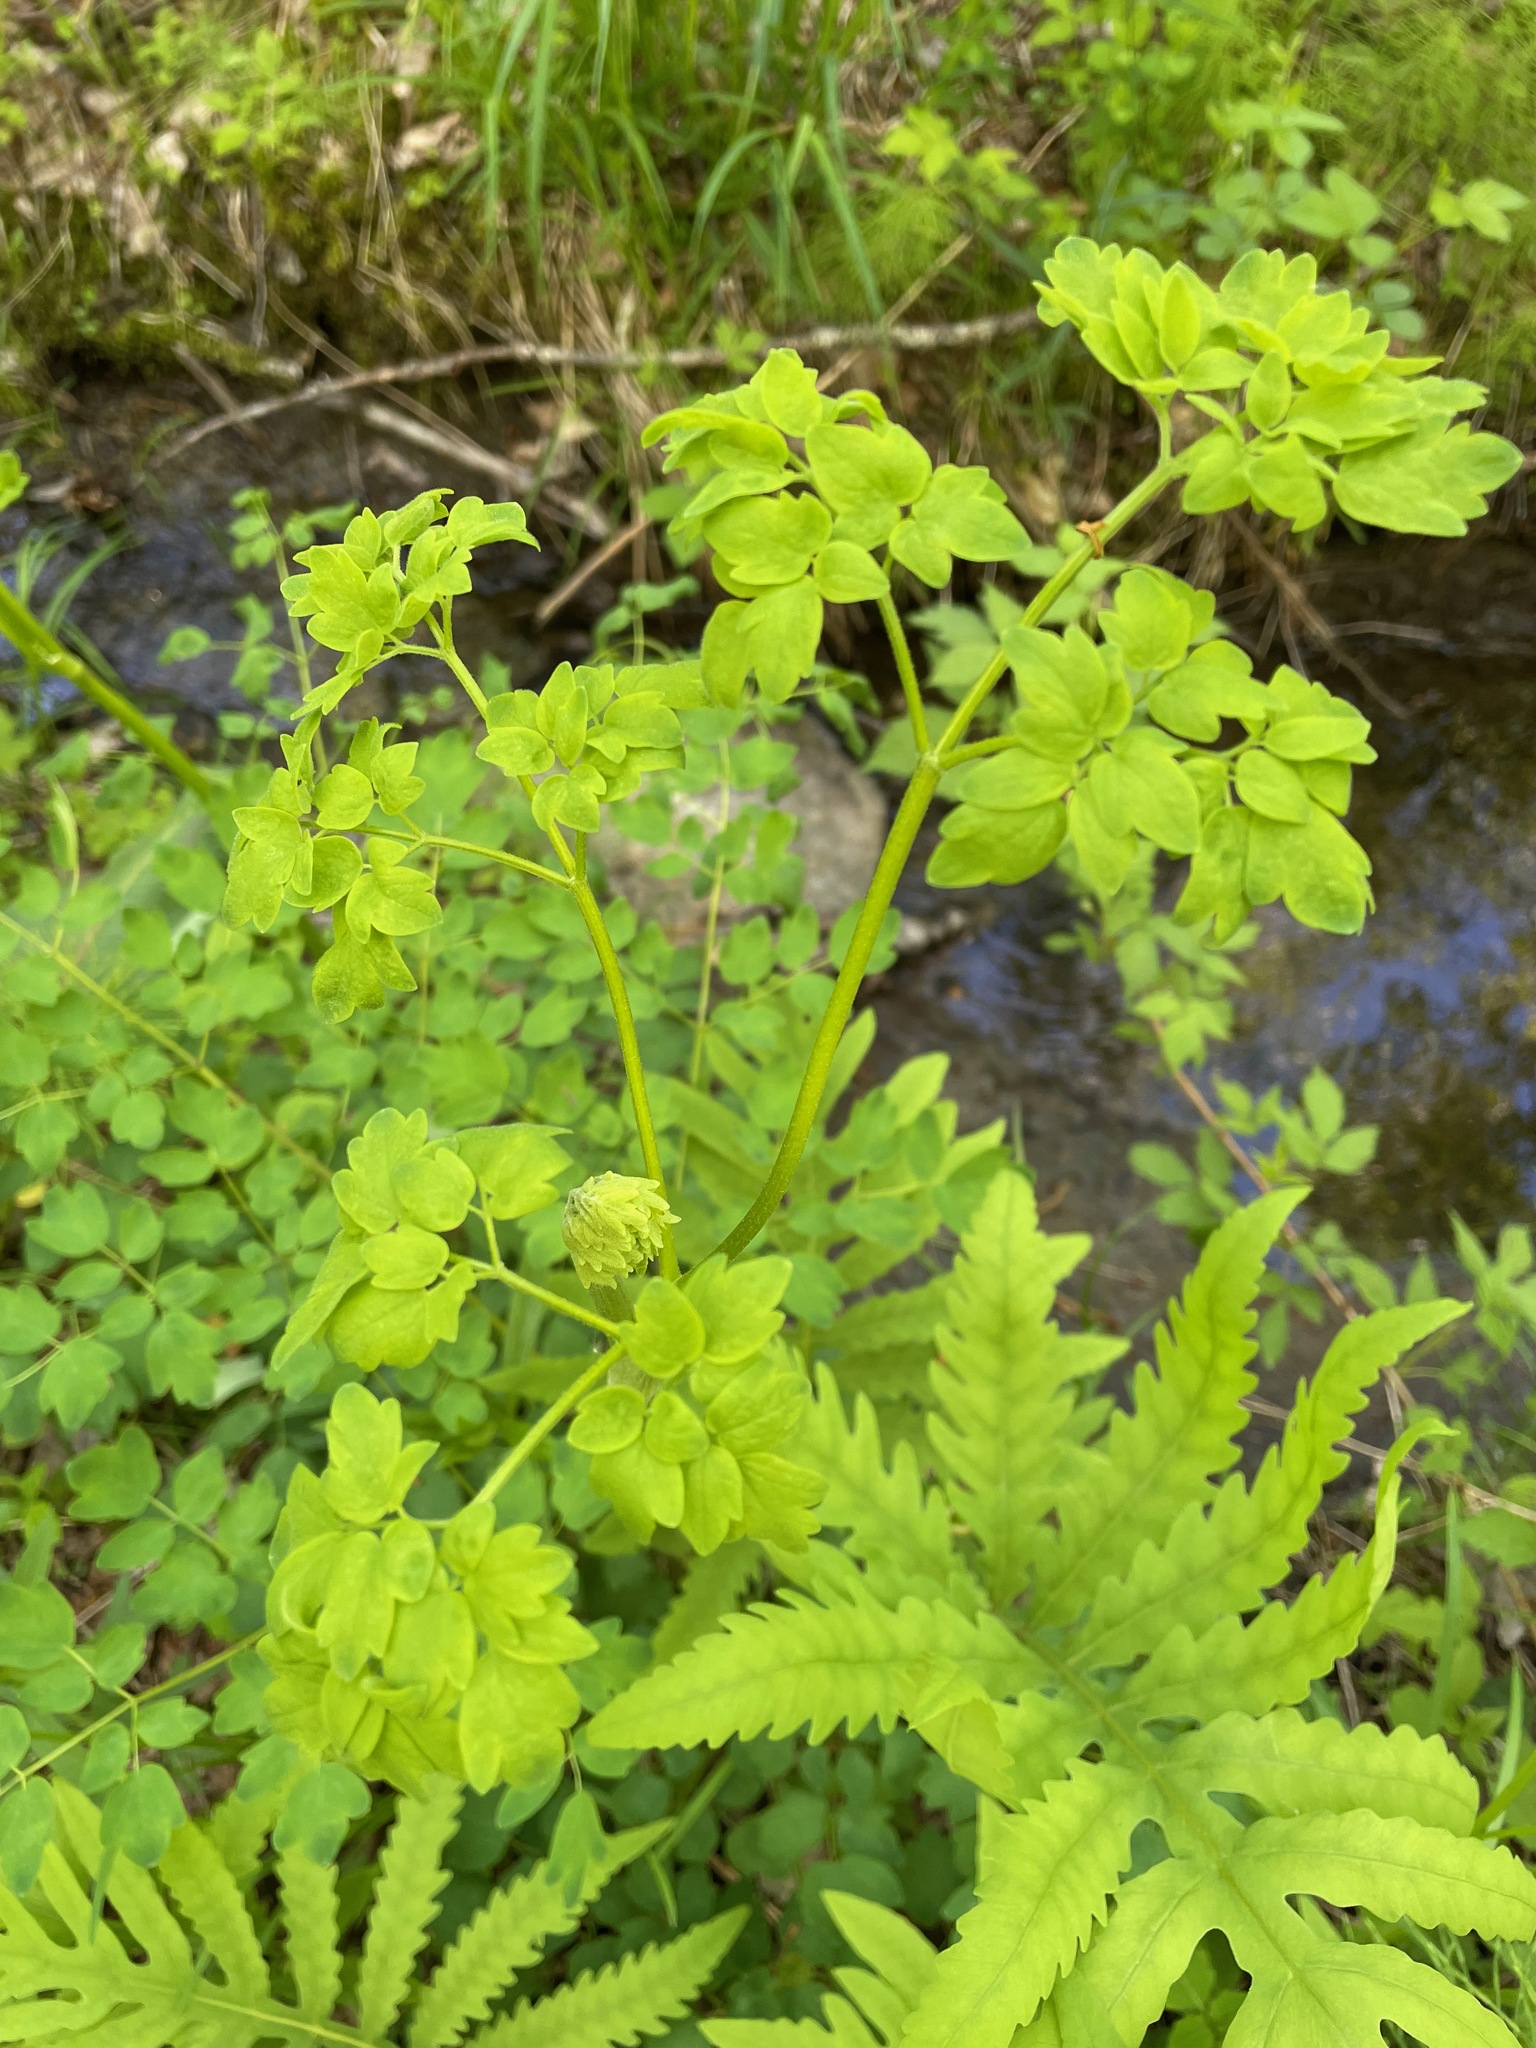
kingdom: Plantae
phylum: Tracheophyta
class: Magnoliopsida
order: Ranunculales
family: Ranunculaceae
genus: Thalictrum
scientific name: Thalictrum pubescens
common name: King-of-the-meadow
